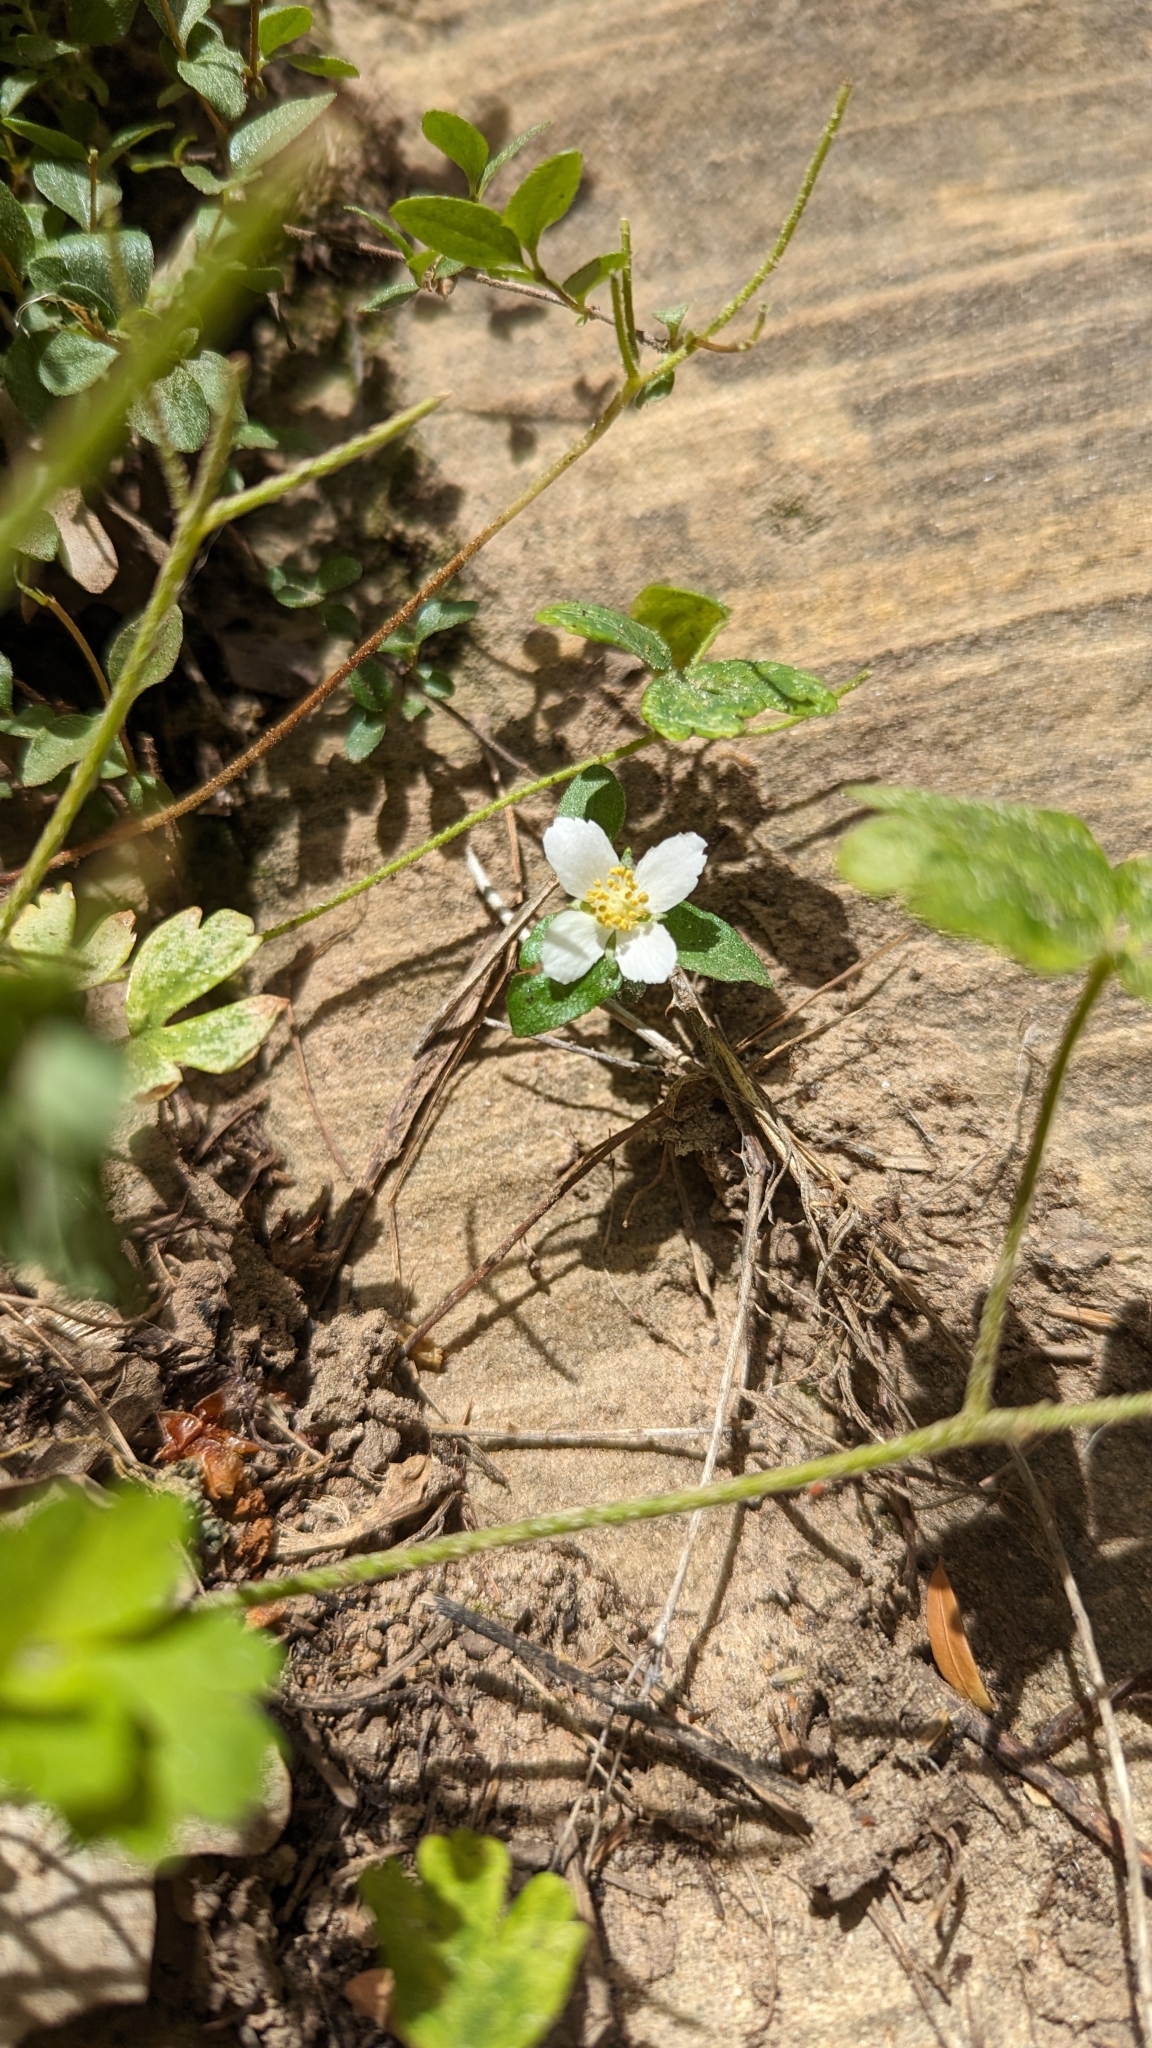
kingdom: Plantae
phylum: Tracheophyta
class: Magnoliopsida
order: Cornales
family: Hydrangeaceae
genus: Philadelphus
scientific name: Philadelphus microphyllus
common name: Desert mock orange
